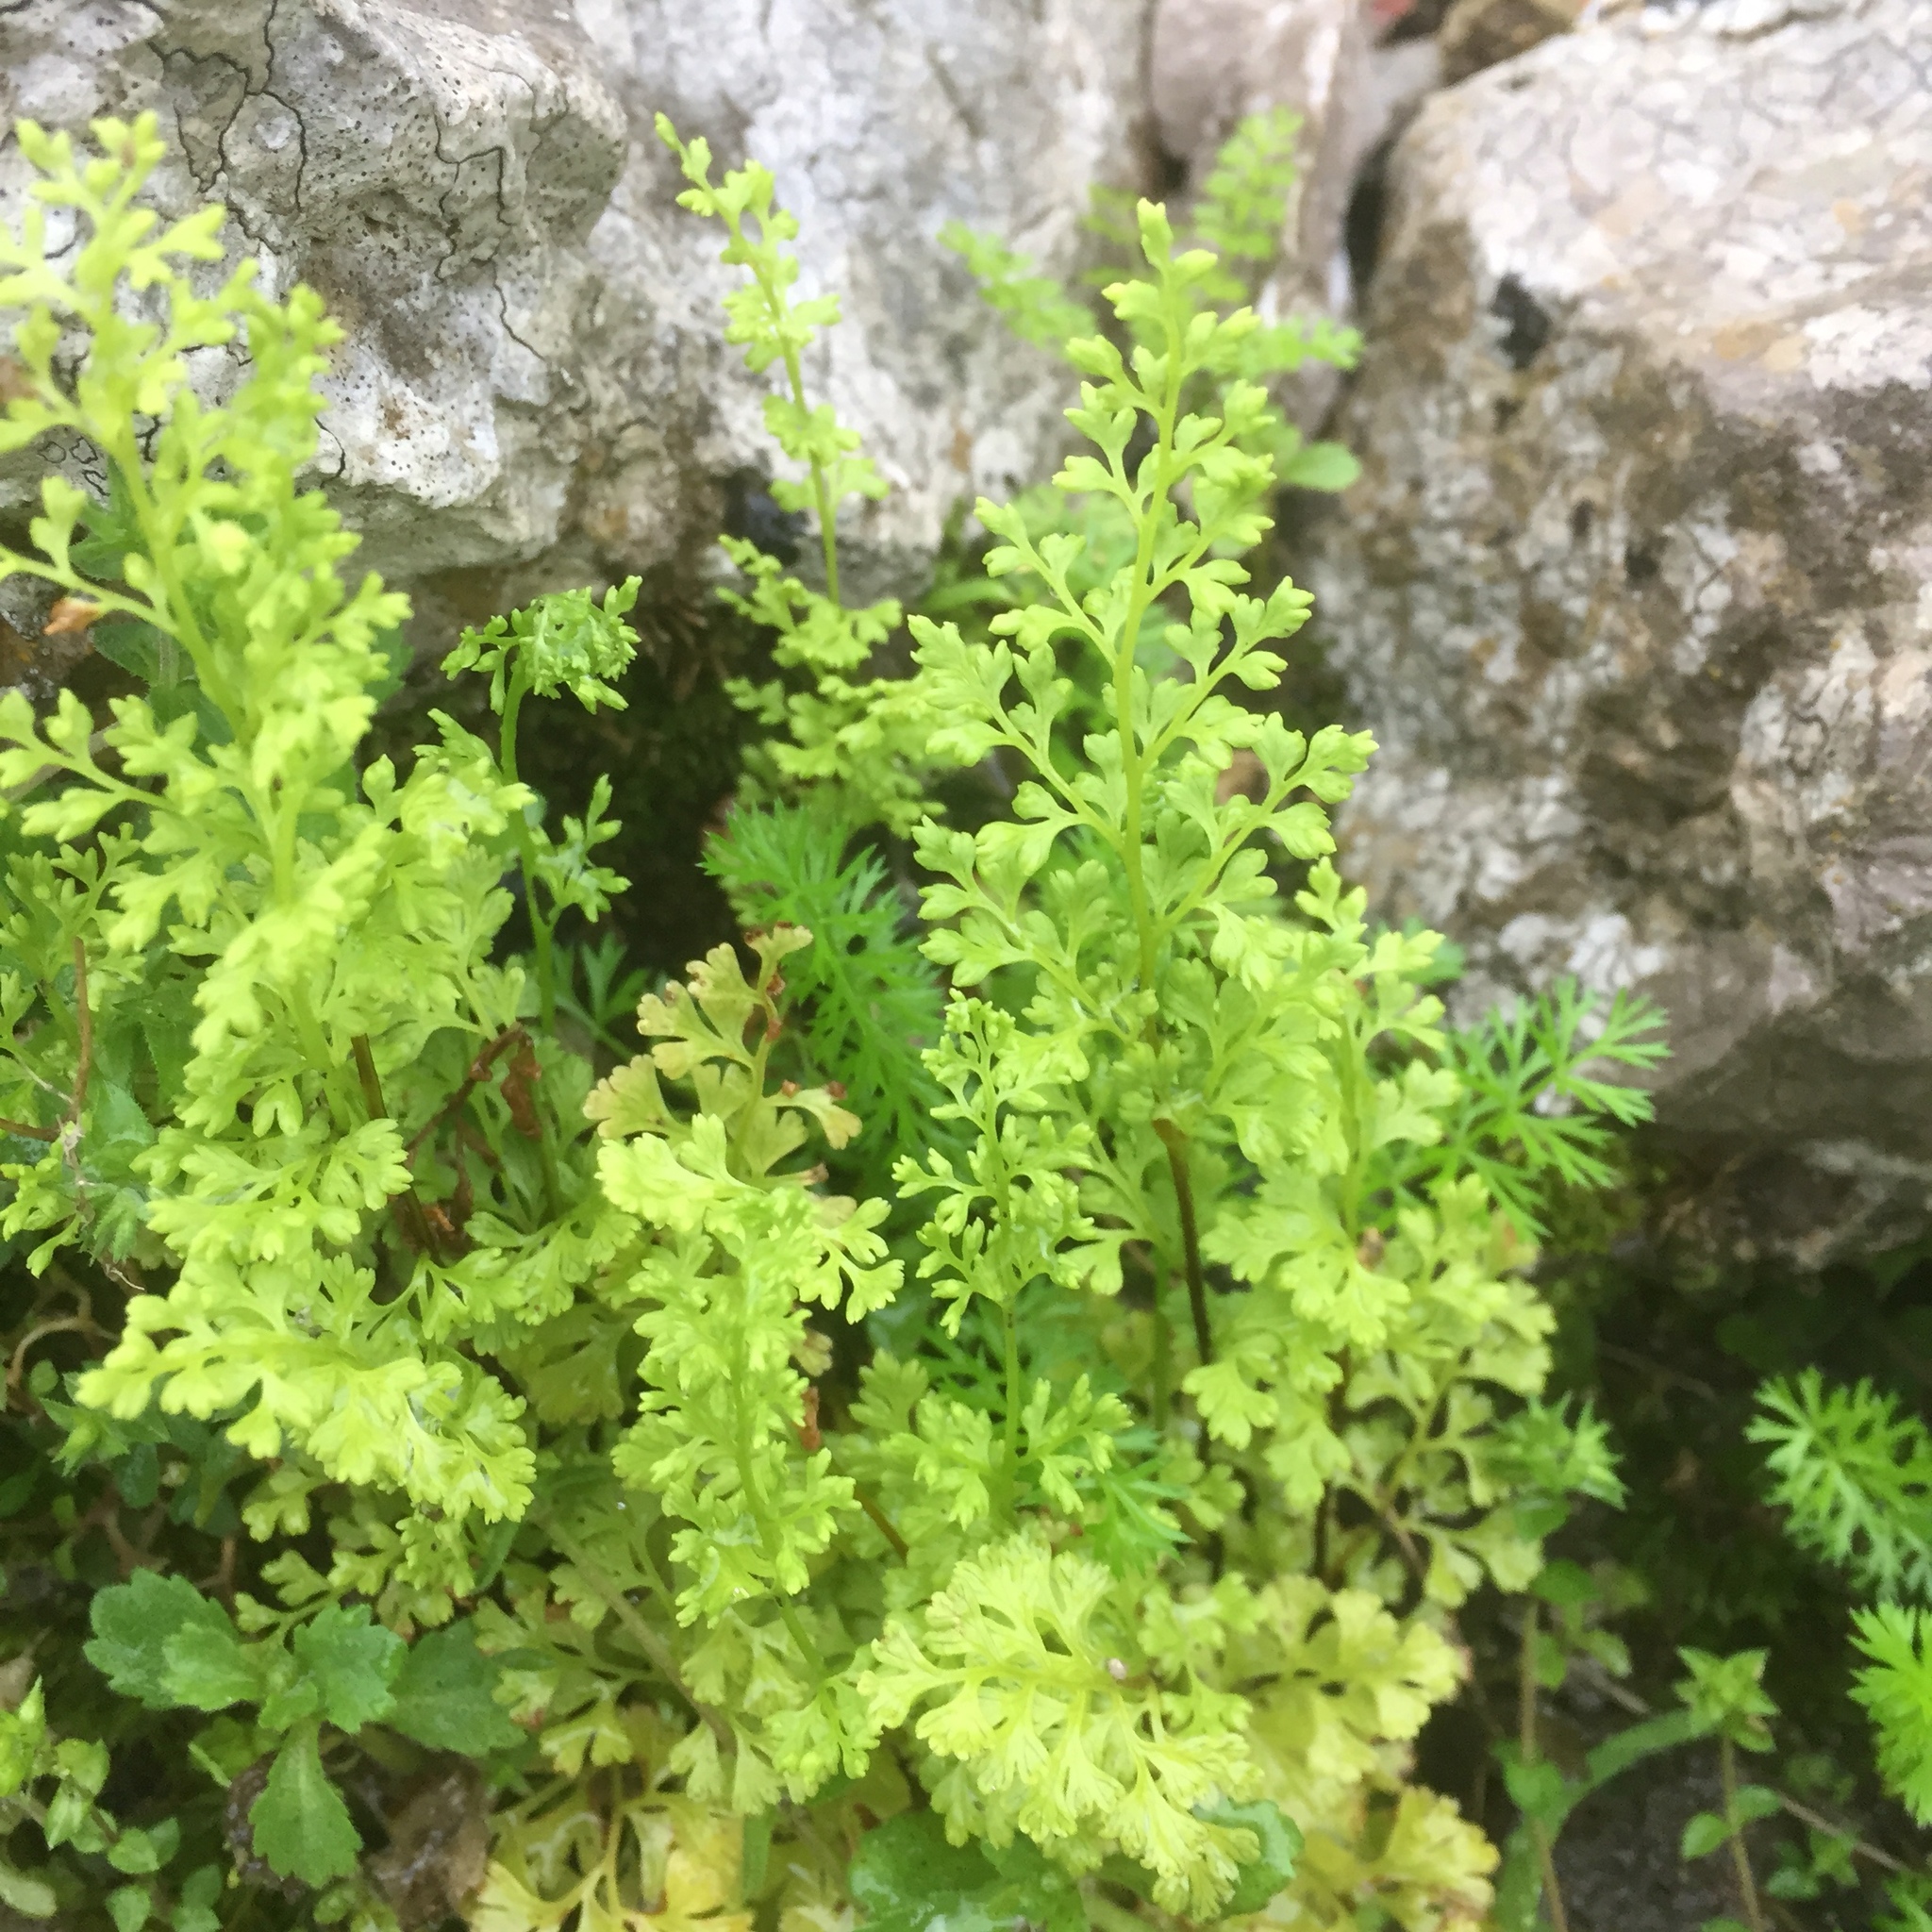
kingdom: Plantae
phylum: Tracheophyta
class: Polypodiopsida
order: Polypodiales
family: Pteridaceae
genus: Anogramma
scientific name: Anogramma leptophylla
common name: Jersey fern
